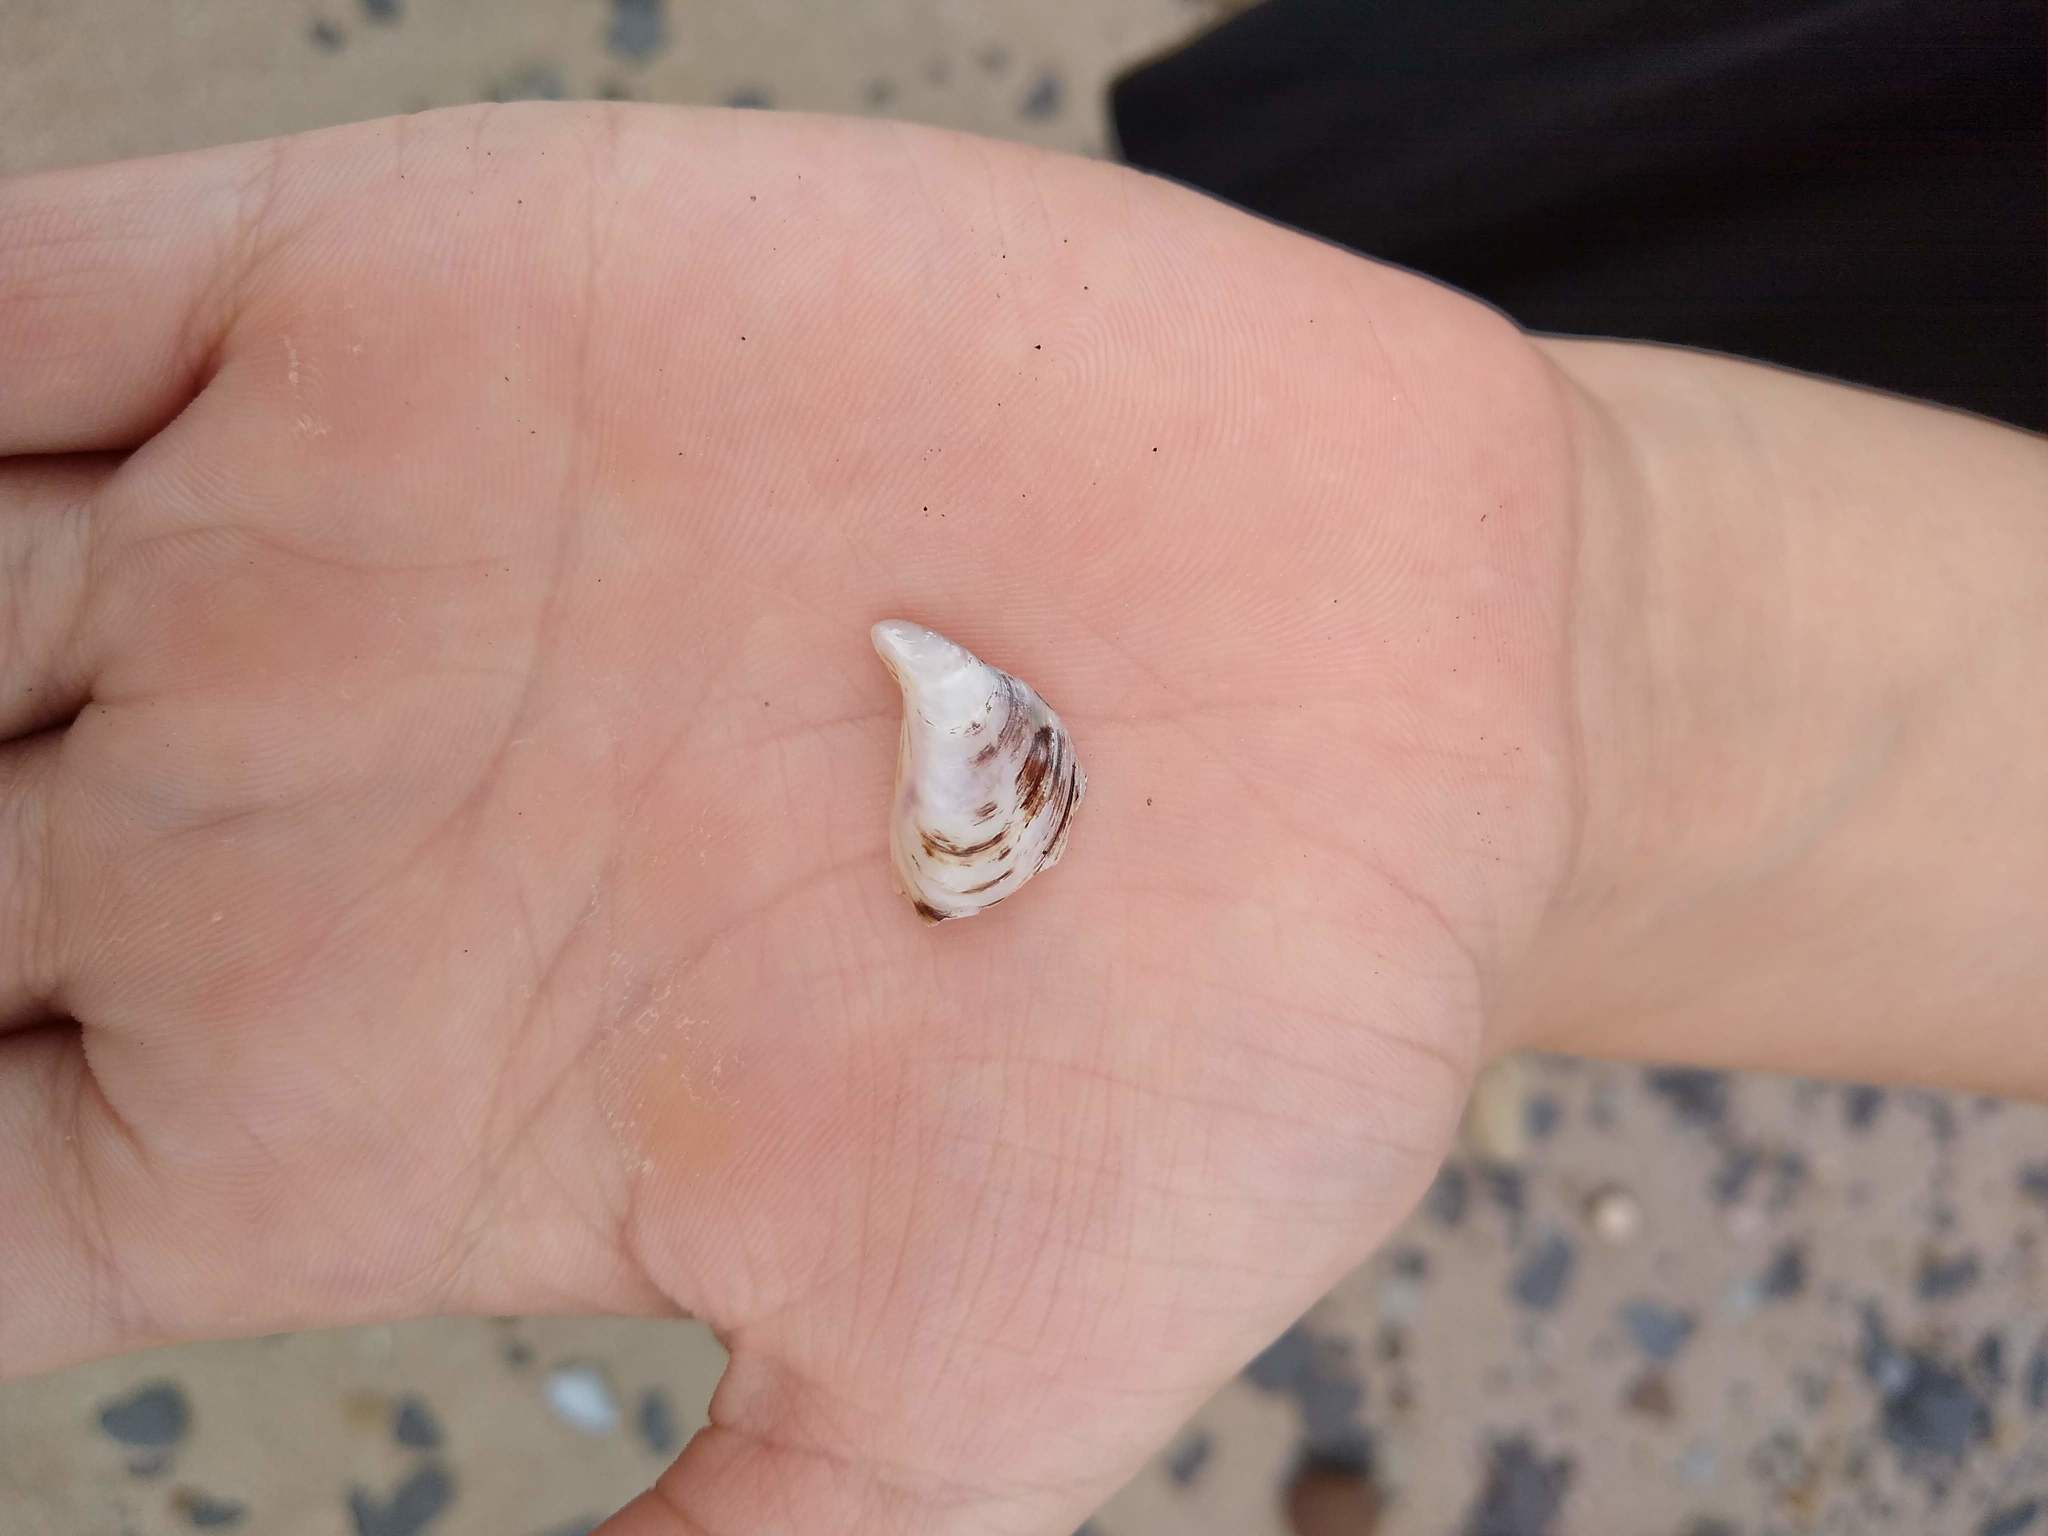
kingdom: Animalia
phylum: Mollusca
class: Bivalvia
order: Myida
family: Dreissenidae
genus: Dreissena
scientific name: Dreissena bugensis
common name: Quagga mussel
